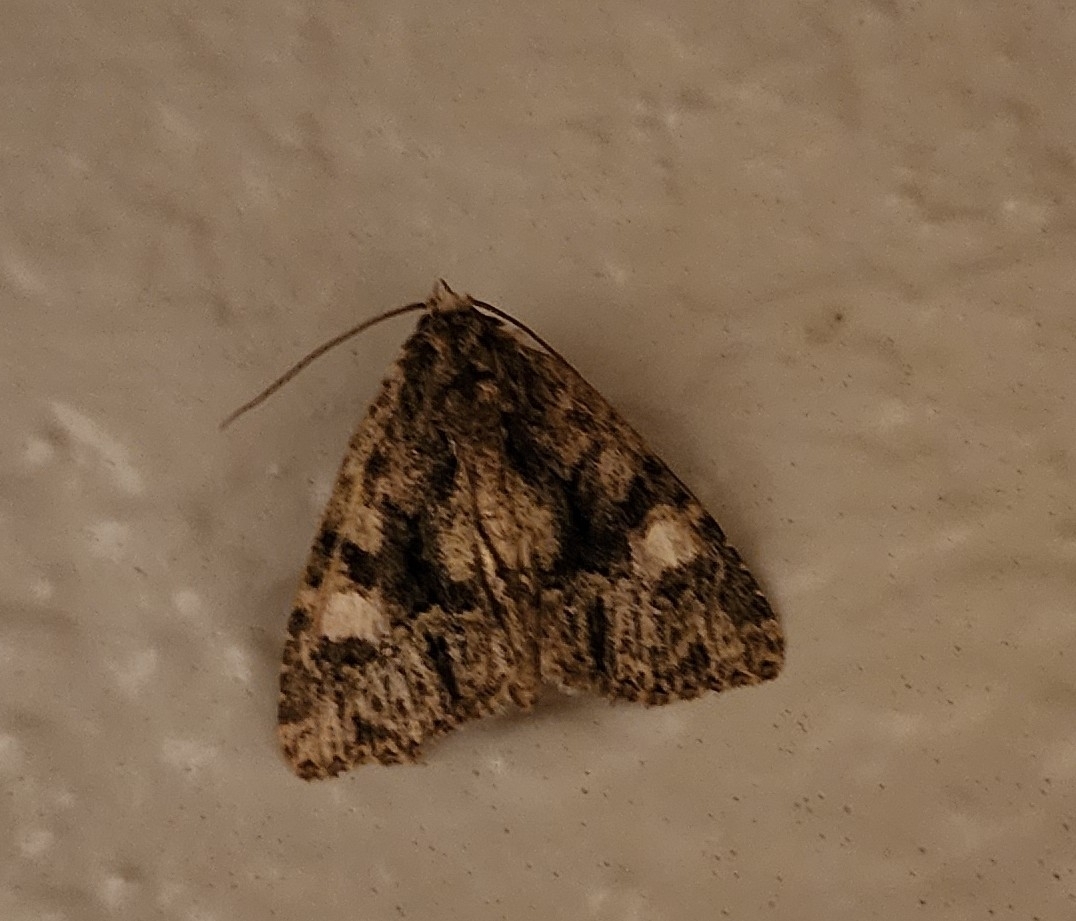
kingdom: Animalia
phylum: Arthropoda
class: Insecta
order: Lepidoptera
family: Noctuidae
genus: Phosphila
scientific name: Phosphila miselioides
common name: Spotted phosphila moth
